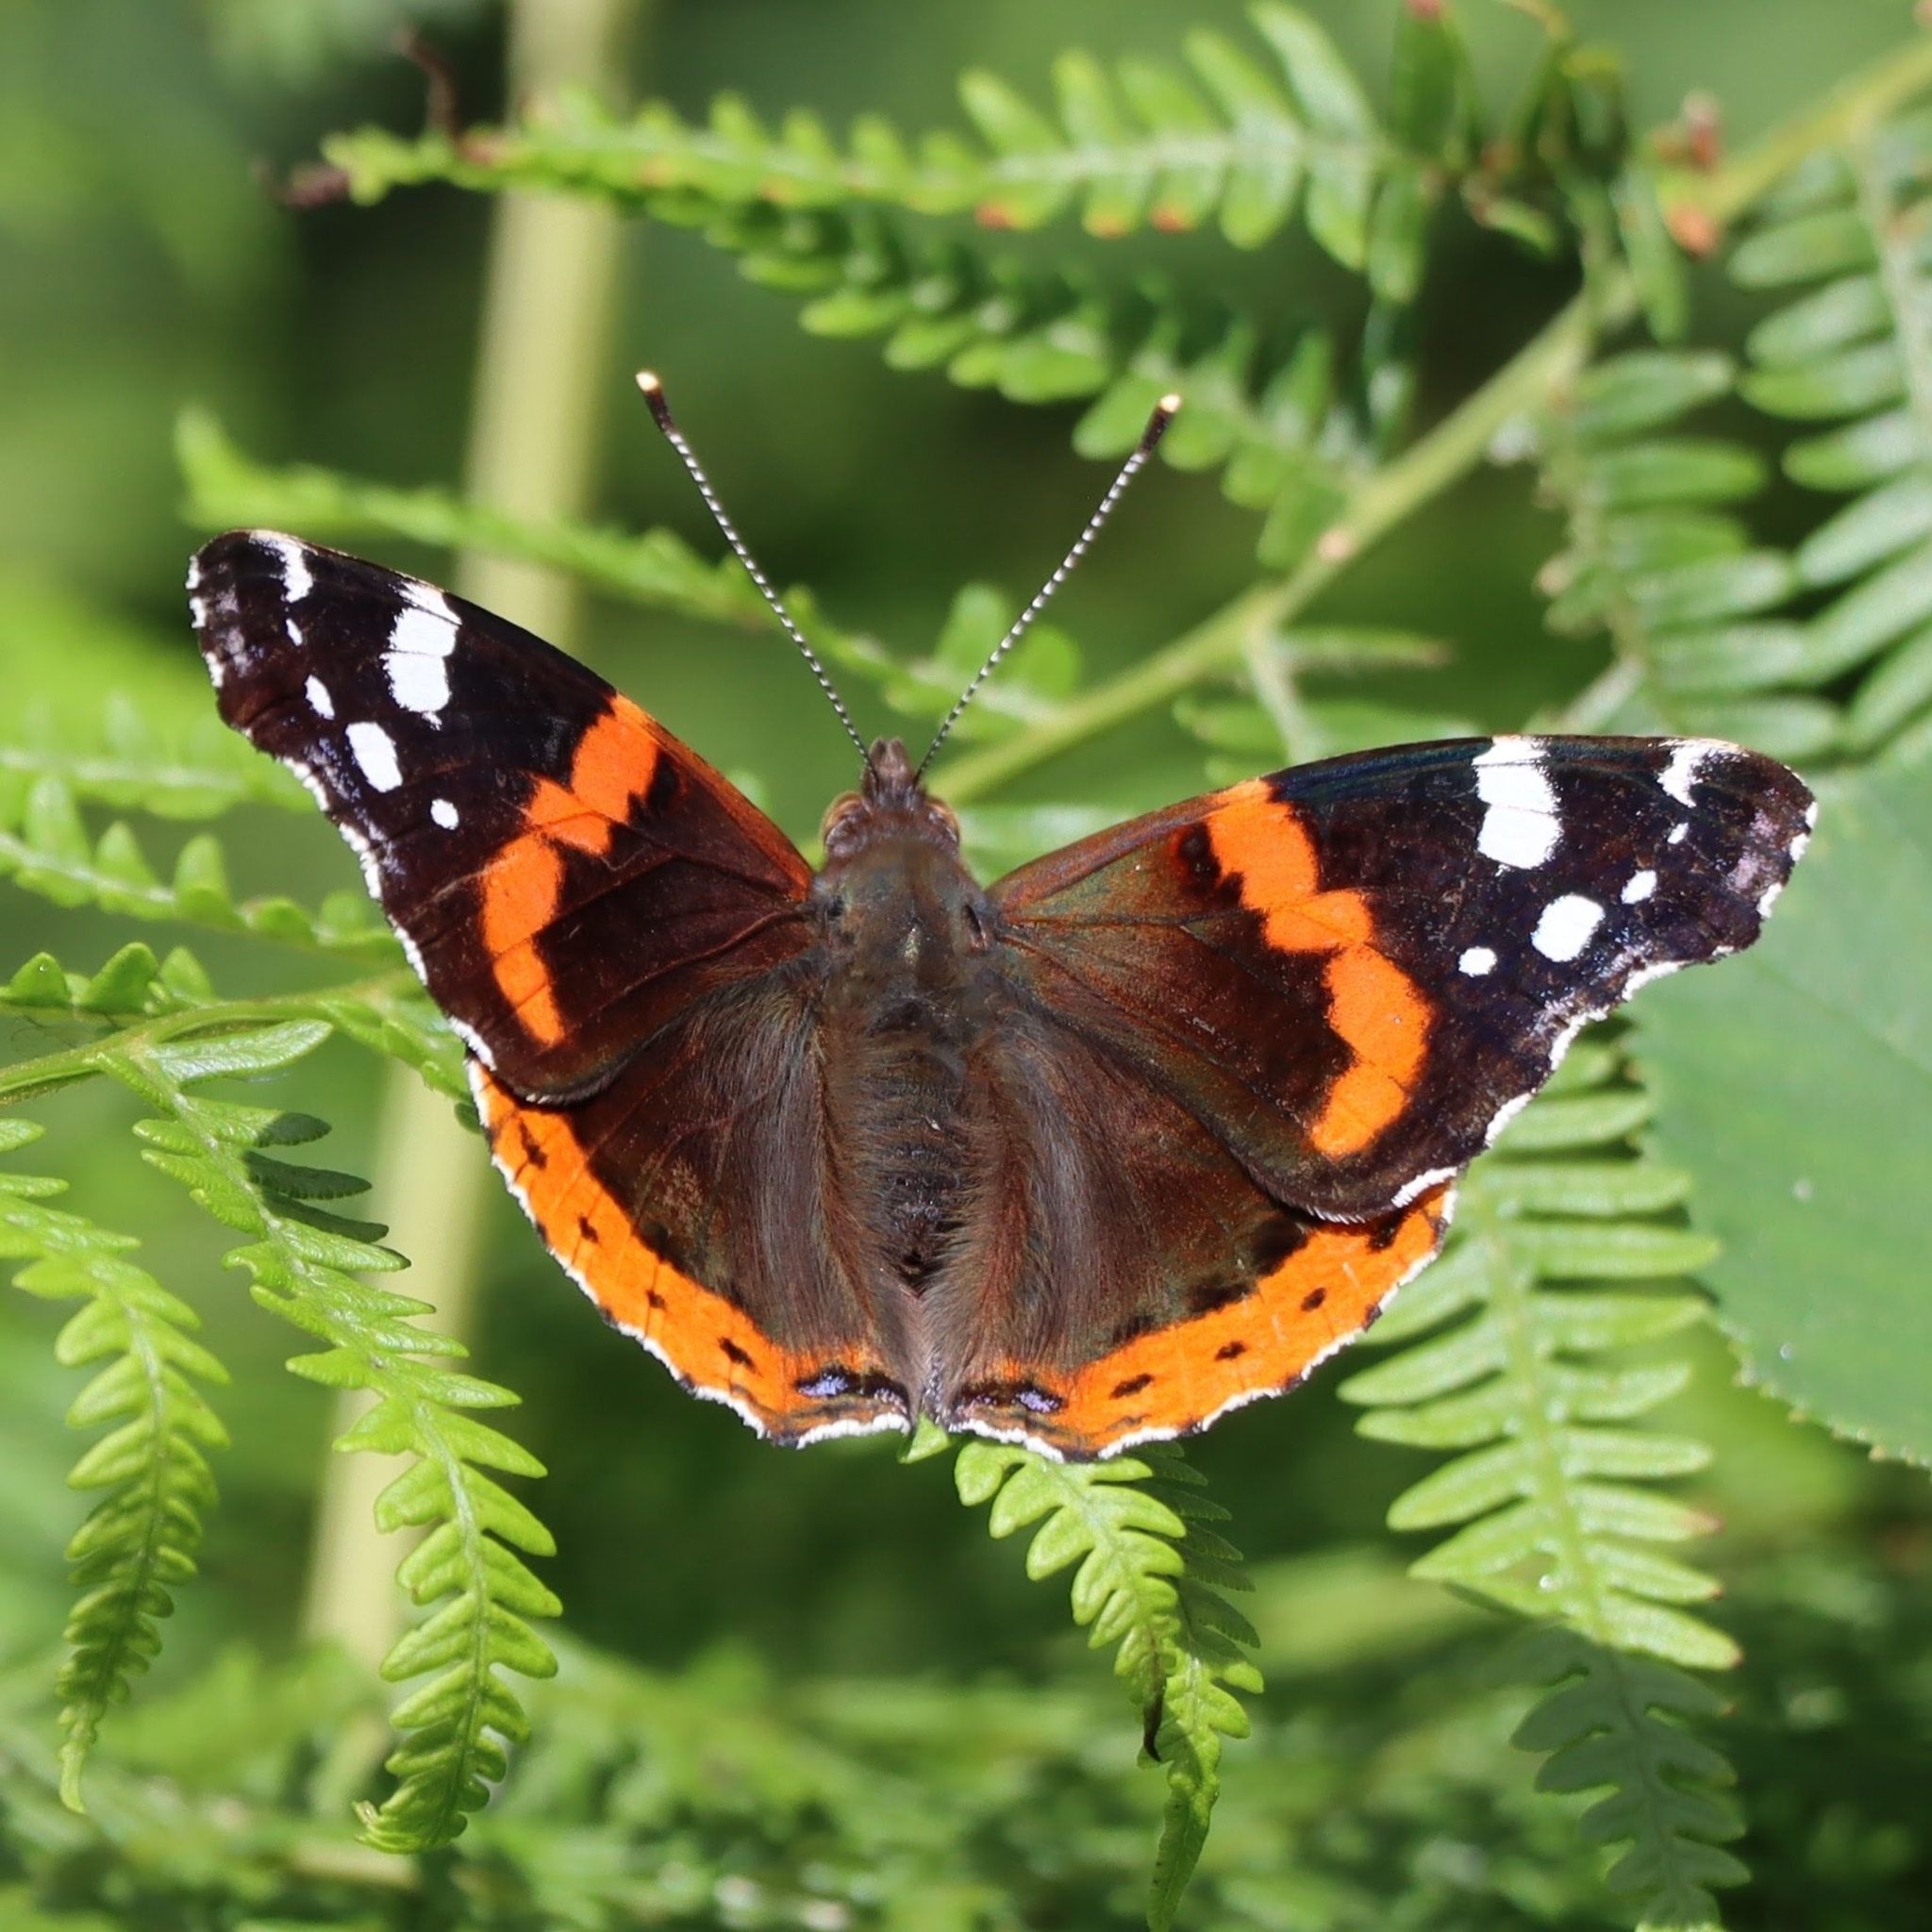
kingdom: Animalia
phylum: Arthropoda
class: Insecta
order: Lepidoptera
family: Nymphalidae
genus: Vanessa
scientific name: Vanessa atalanta
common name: Red admiral
